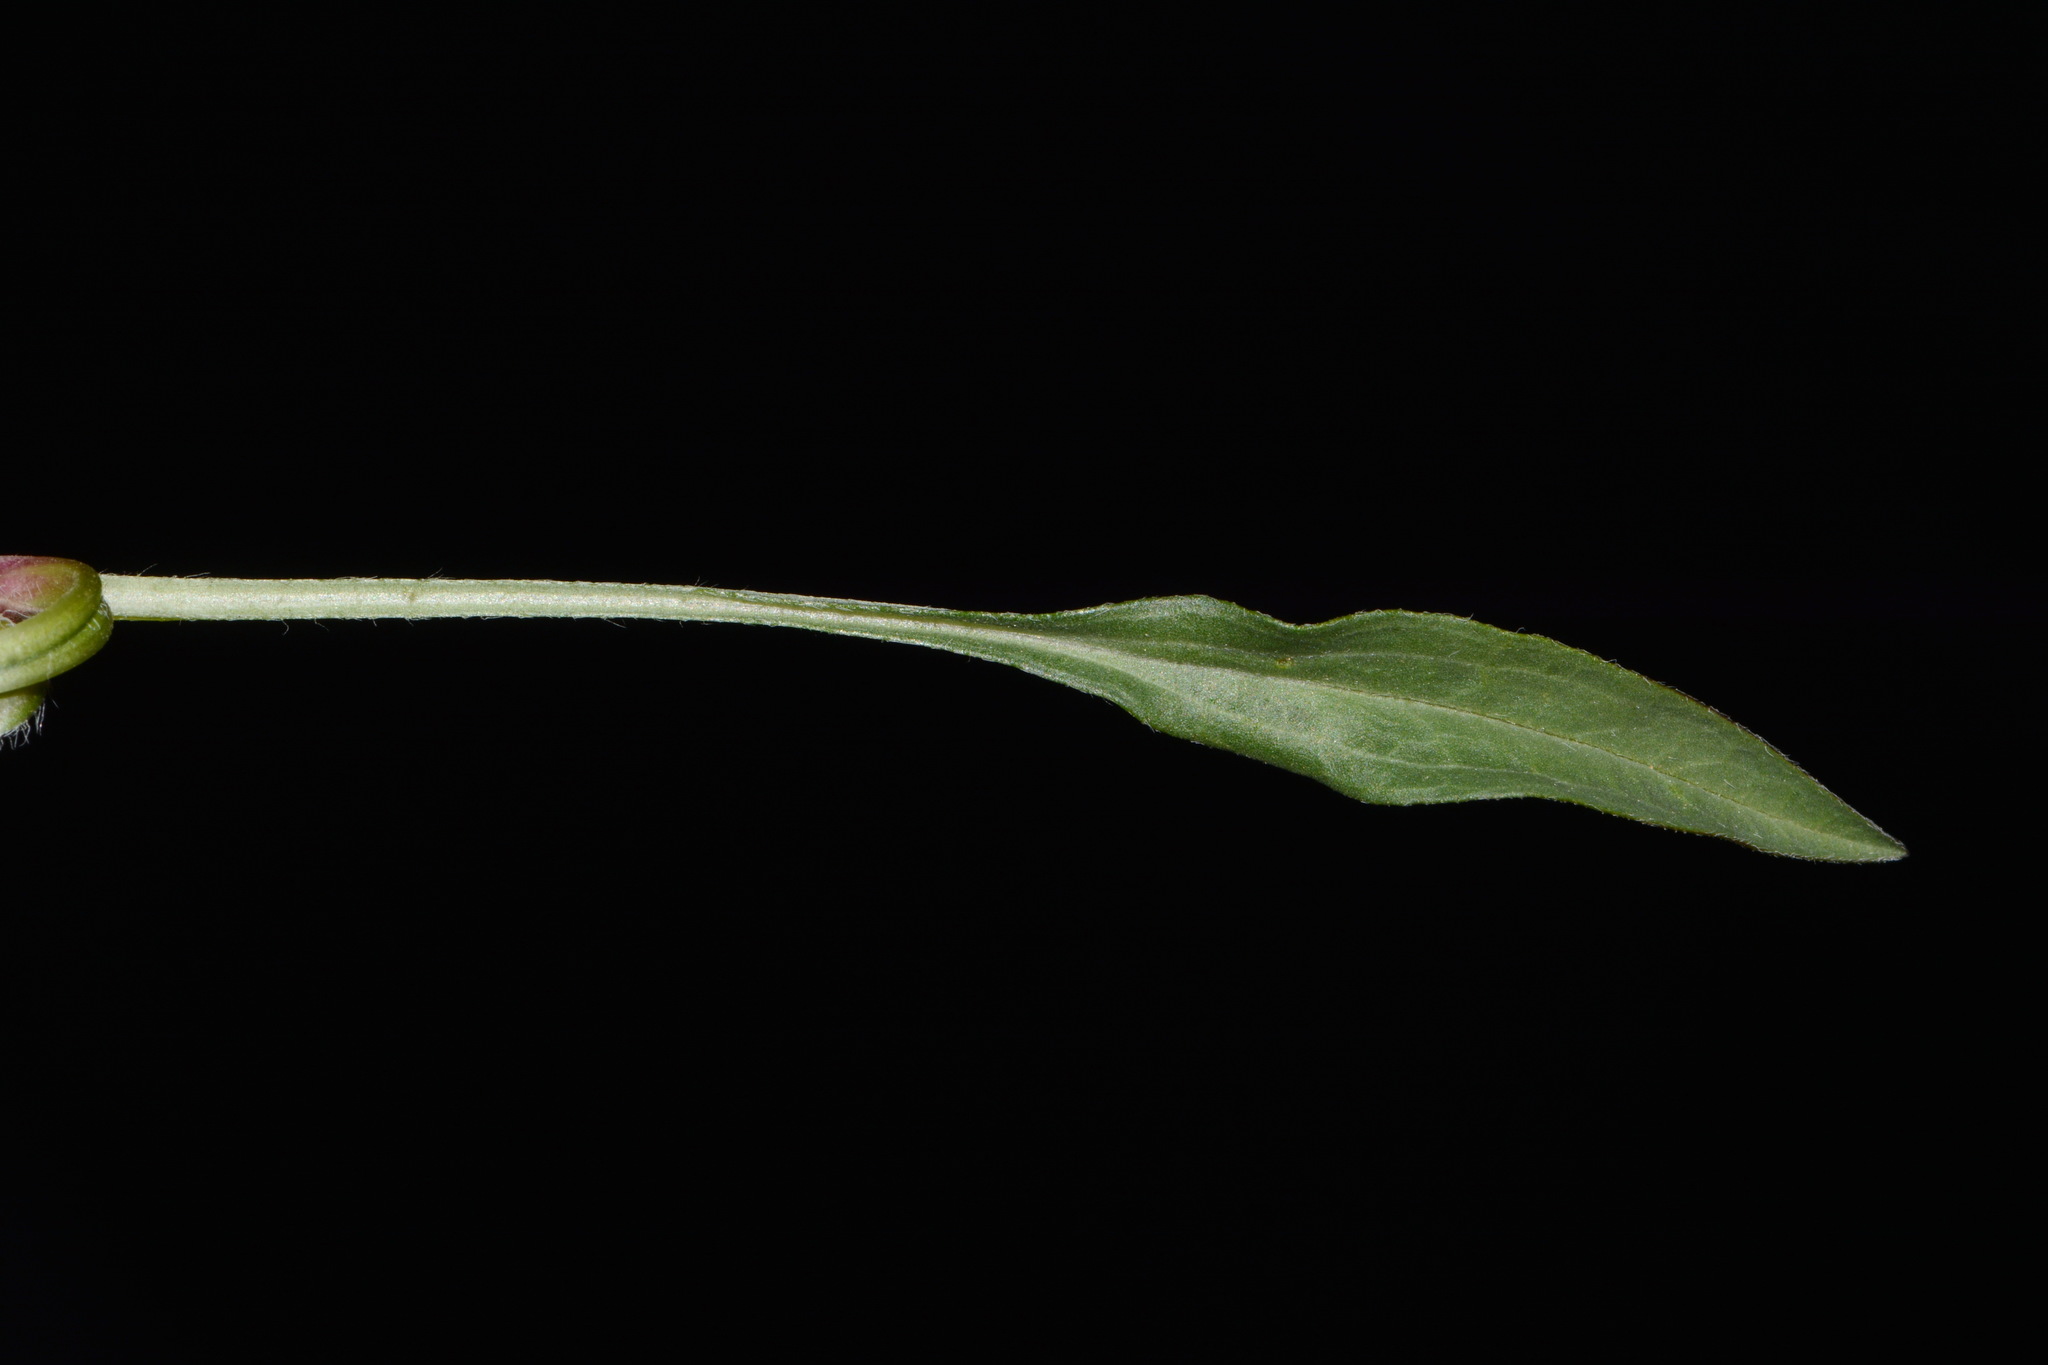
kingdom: Plantae
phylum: Tracheophyta
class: Magnoliopsida
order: Asterales
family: Asteraceae
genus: Erigeron
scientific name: Erigeron ursinus
